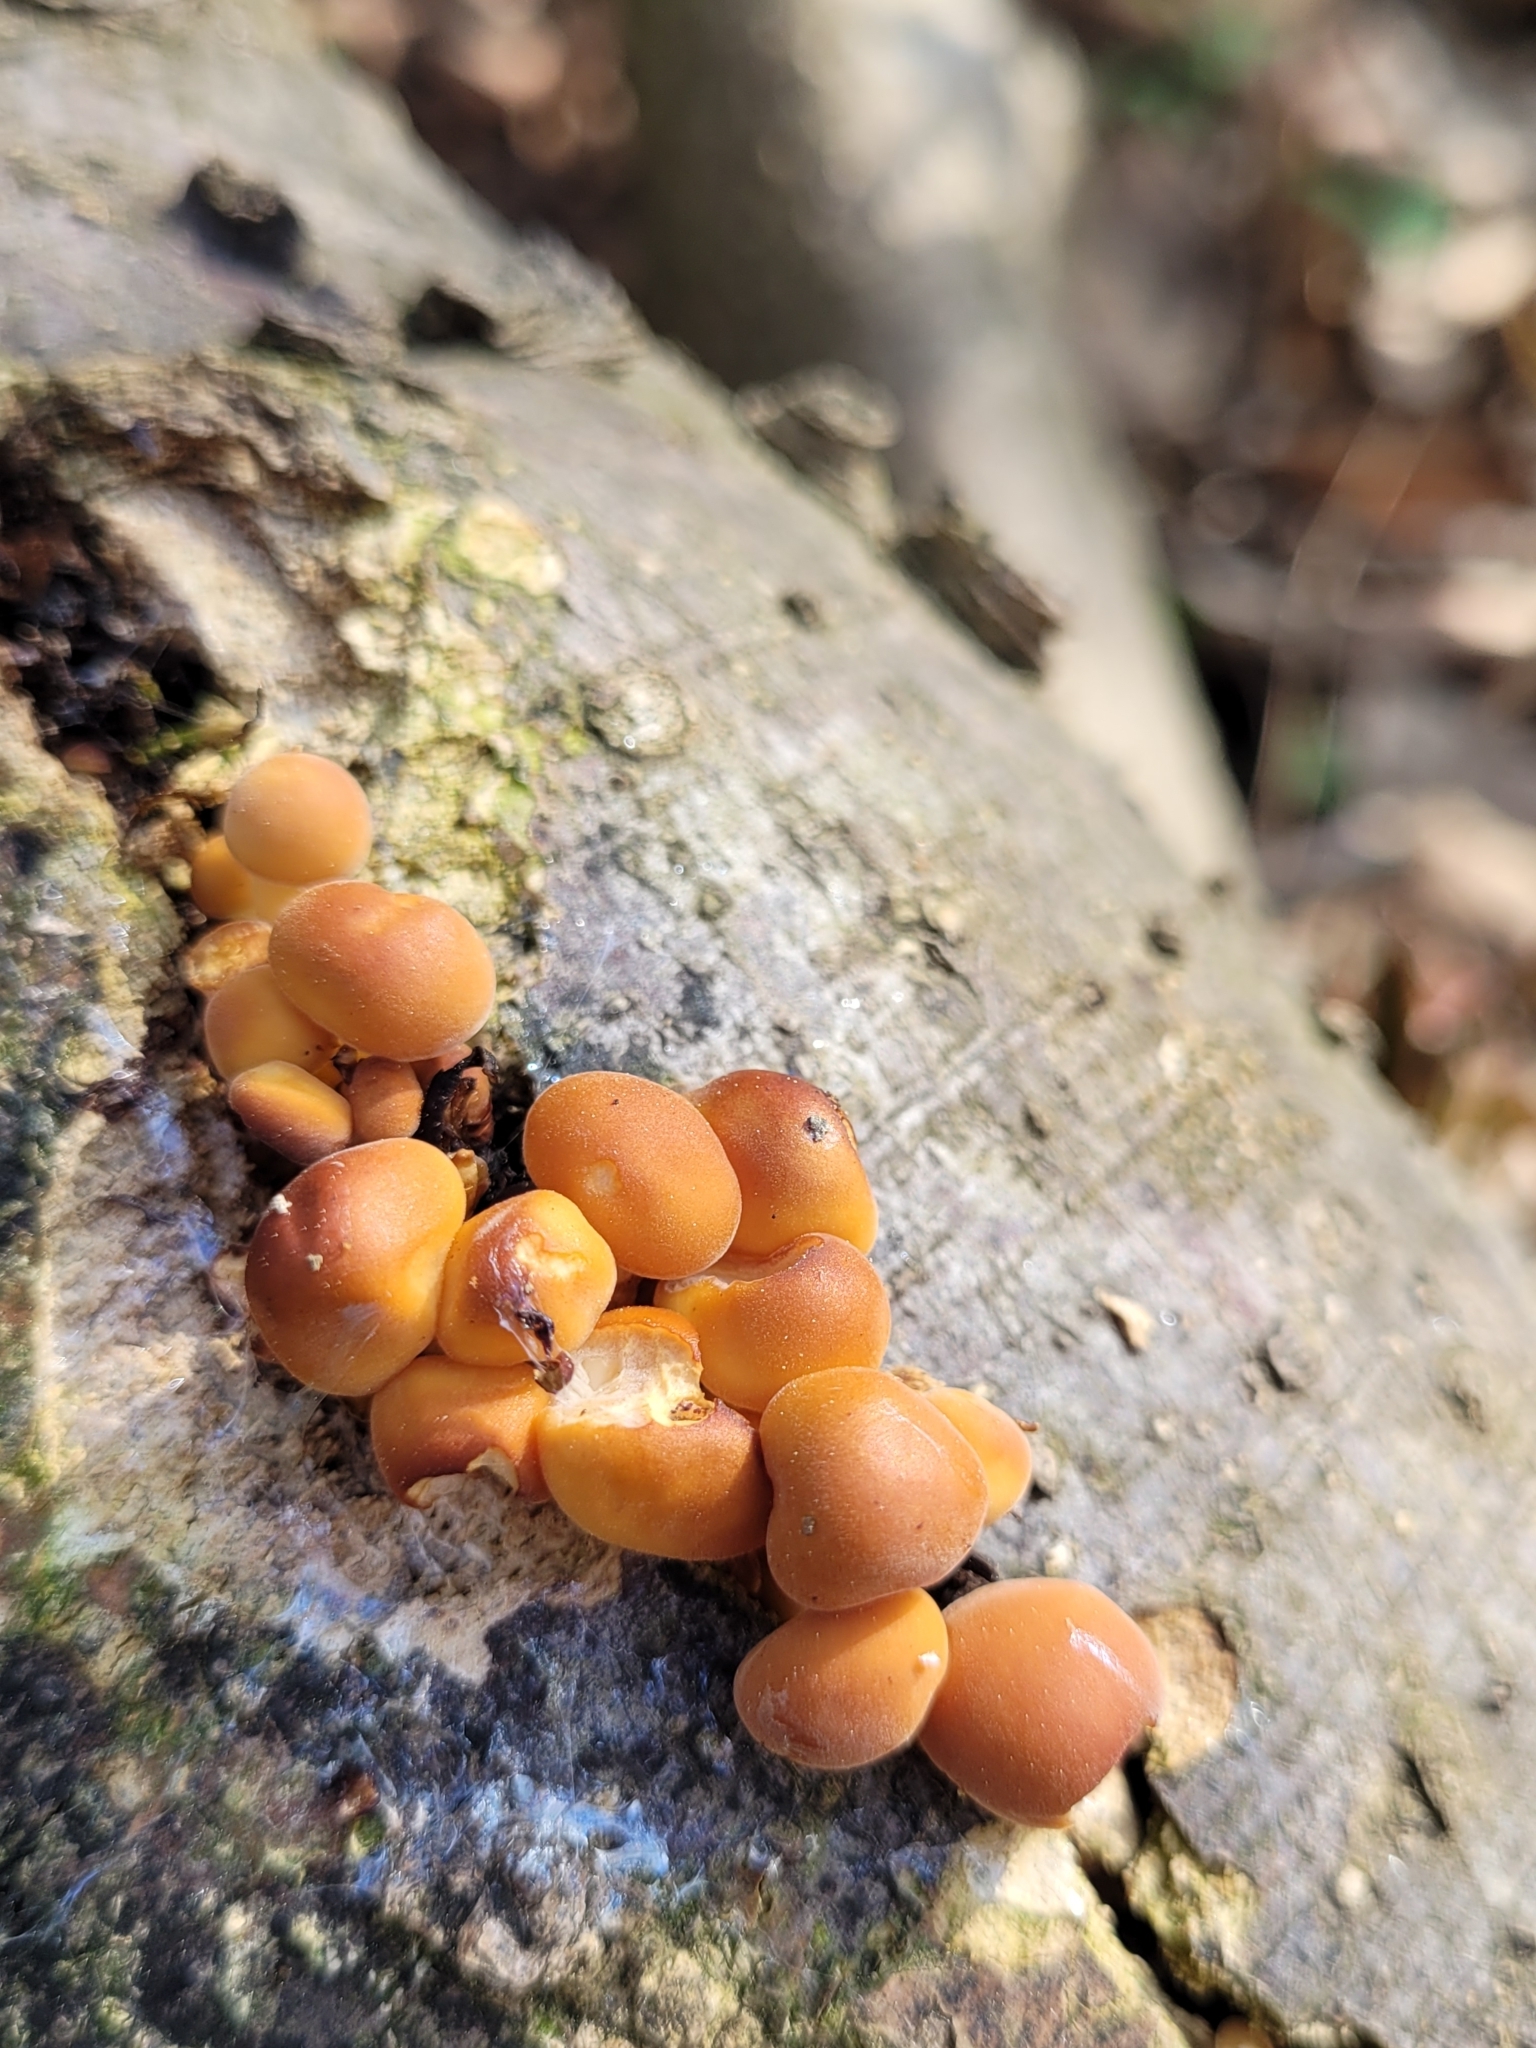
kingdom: Fungi
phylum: Basidiomycota
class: Agaricomycetes
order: Agaricales
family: Physalacriaceae
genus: Flammulina
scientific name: Flammulina velutipes
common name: Velvet shank
